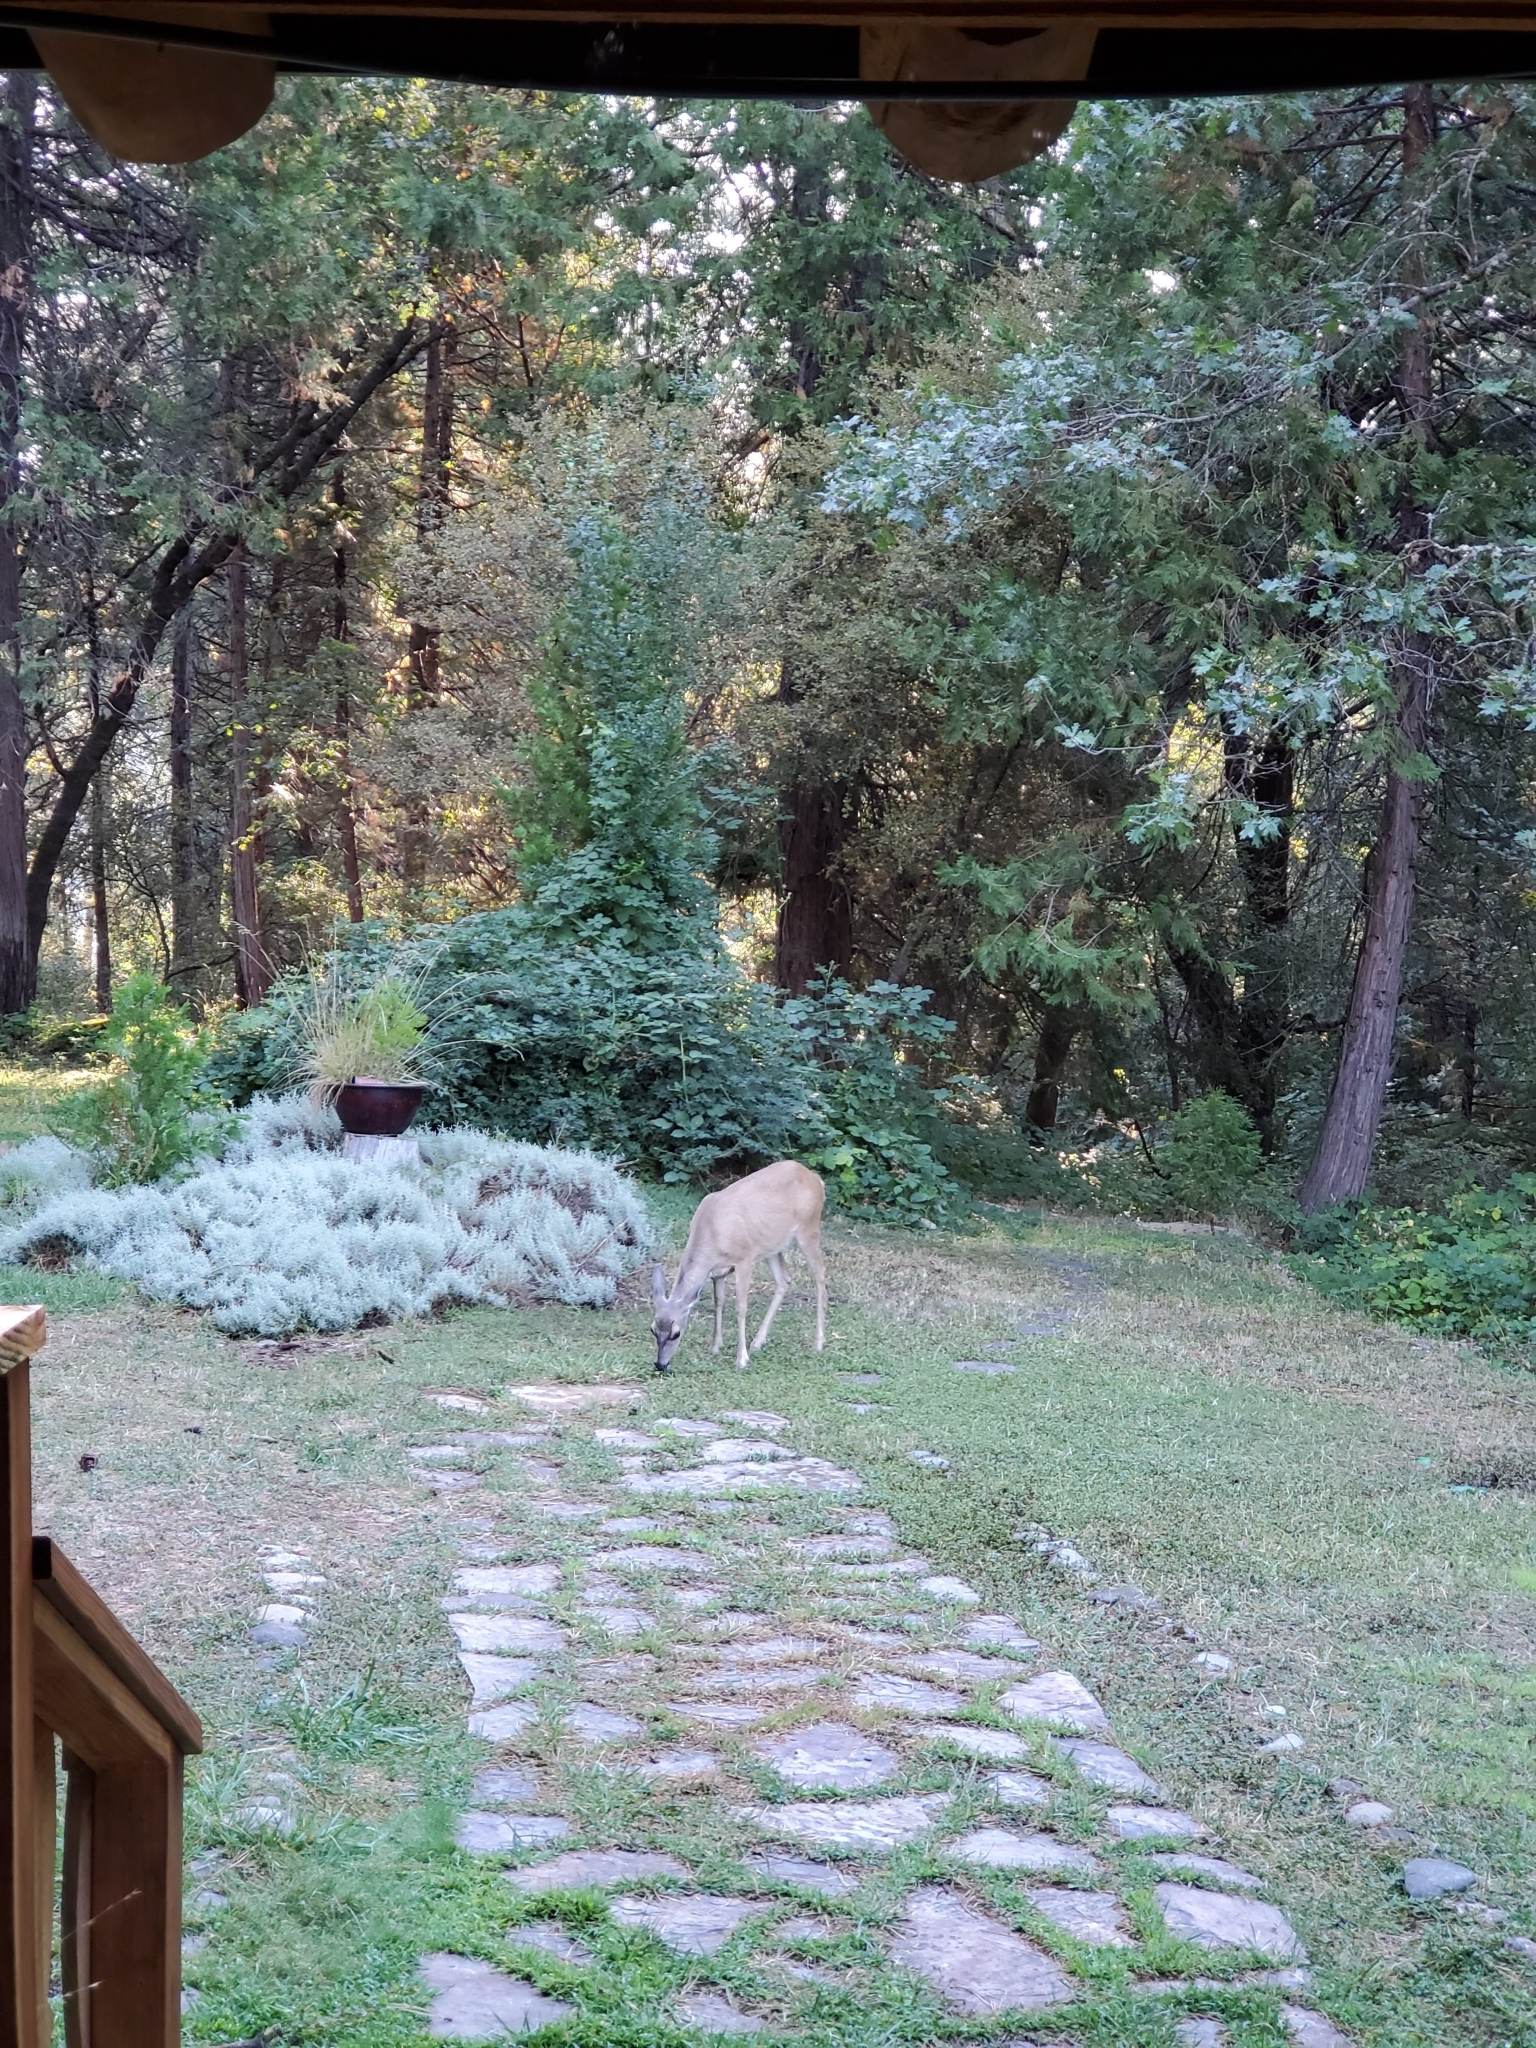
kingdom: Animalia
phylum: Chordata
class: Mammalia
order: Artiodactyla
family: Cervidae
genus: Odocoileus
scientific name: Odocoileus hemionus
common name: Mule deer
